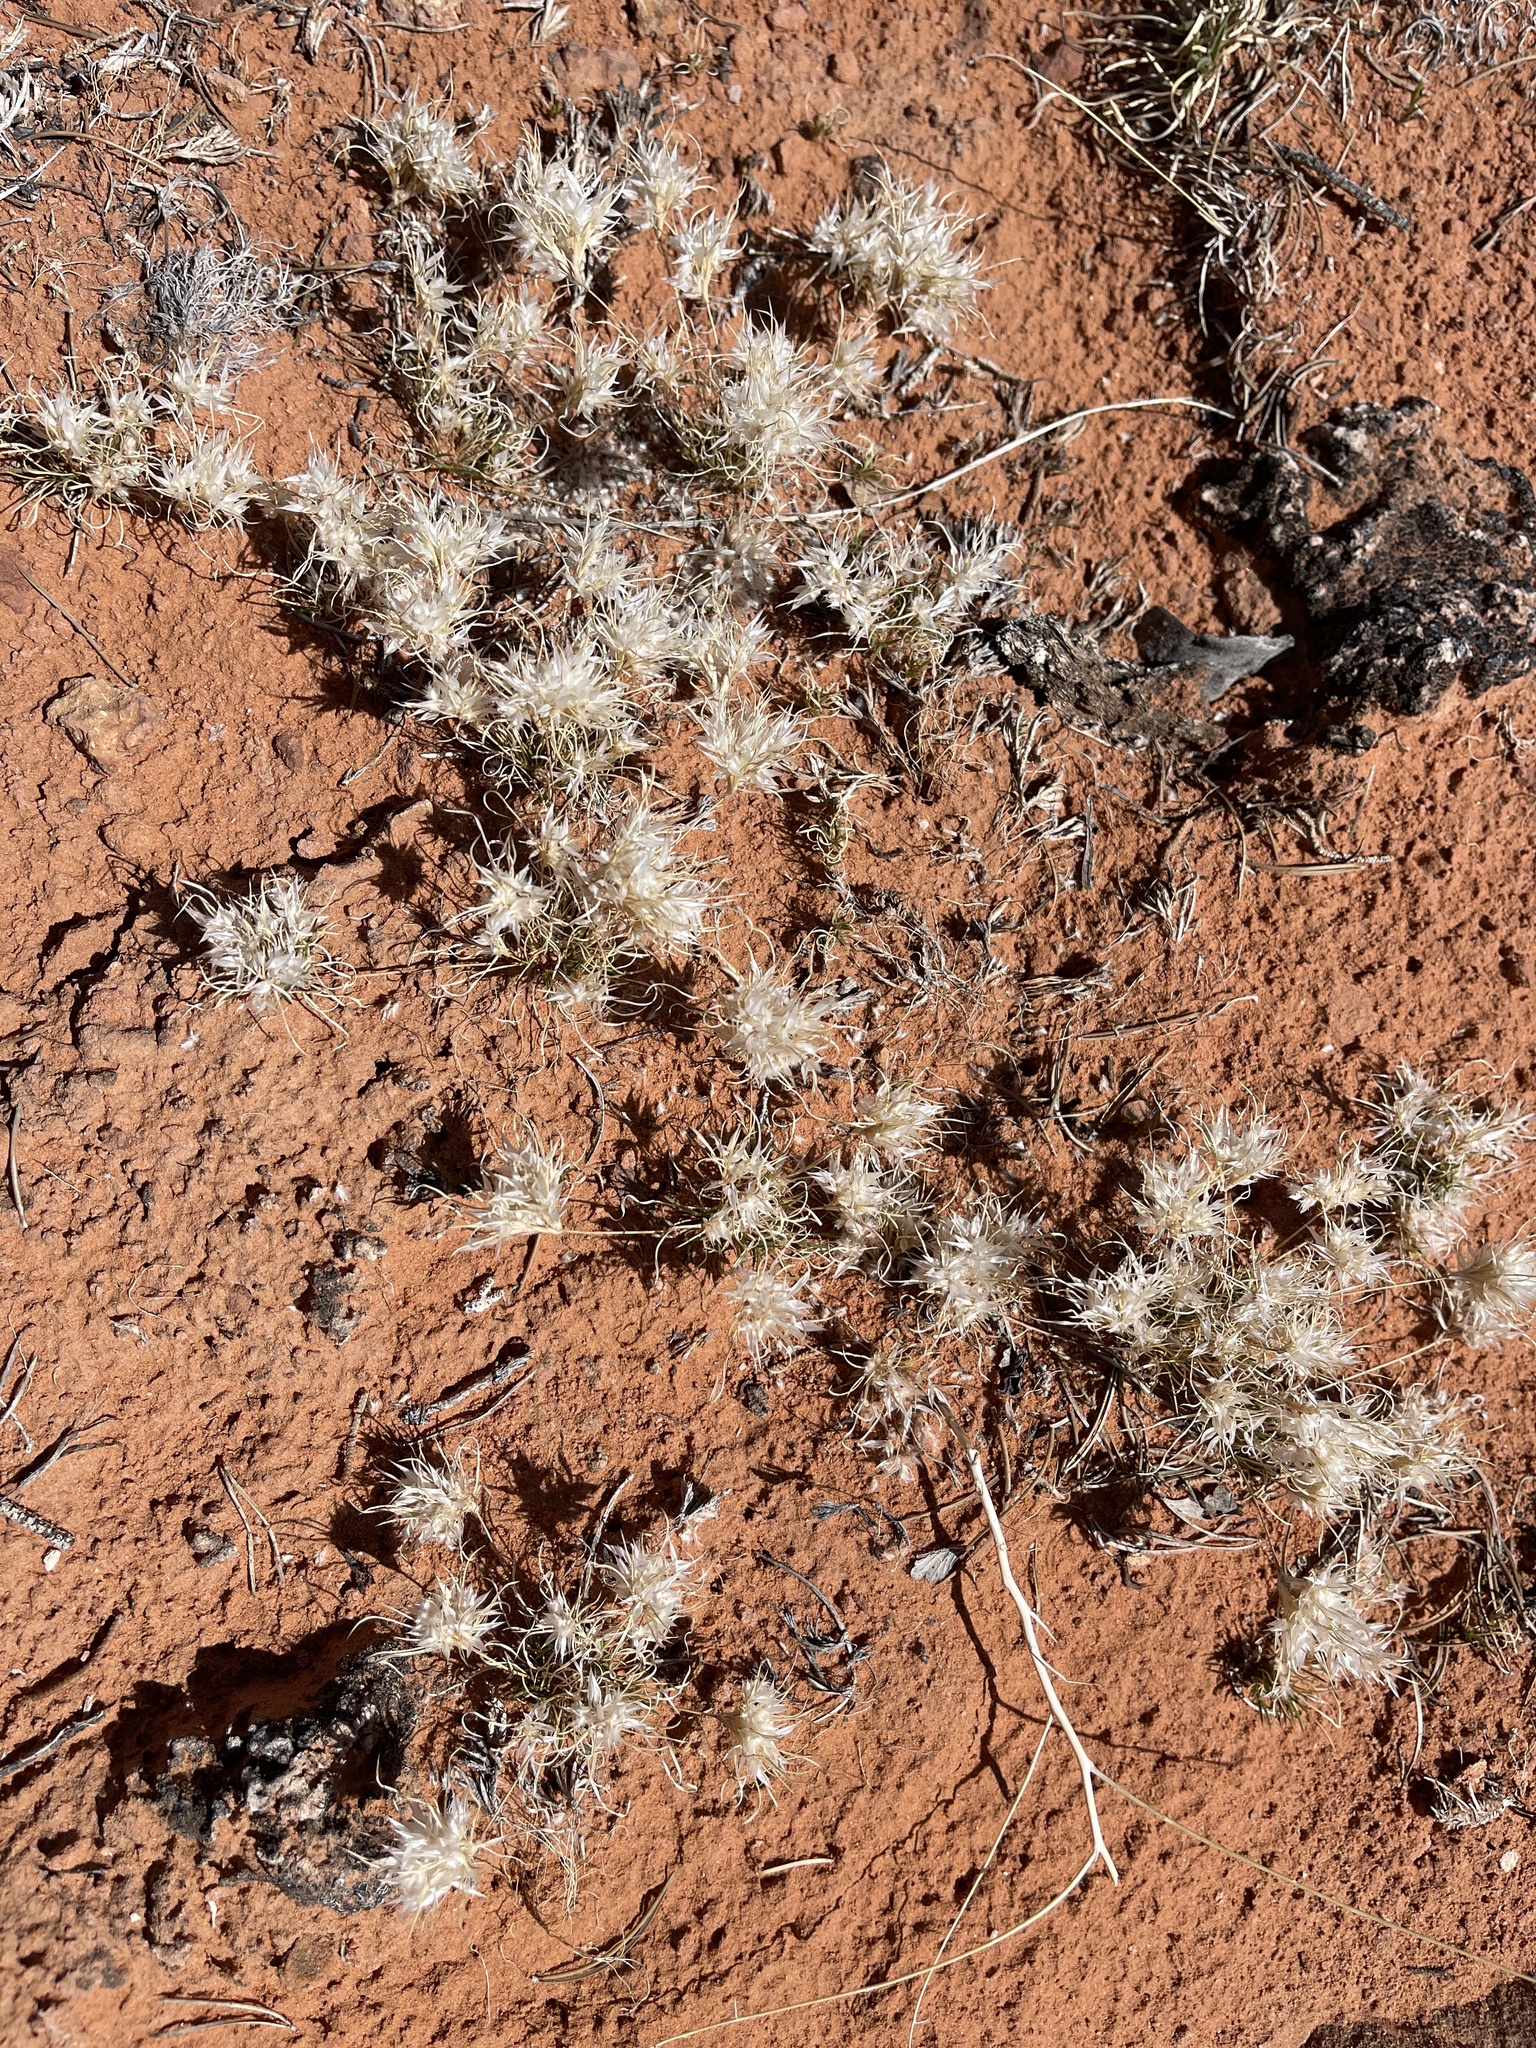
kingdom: Plantae
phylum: Tracheophyta
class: Liliopsida
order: Poales
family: Poaceae
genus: Dasyochloa
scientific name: Dasyochloa pulchella
